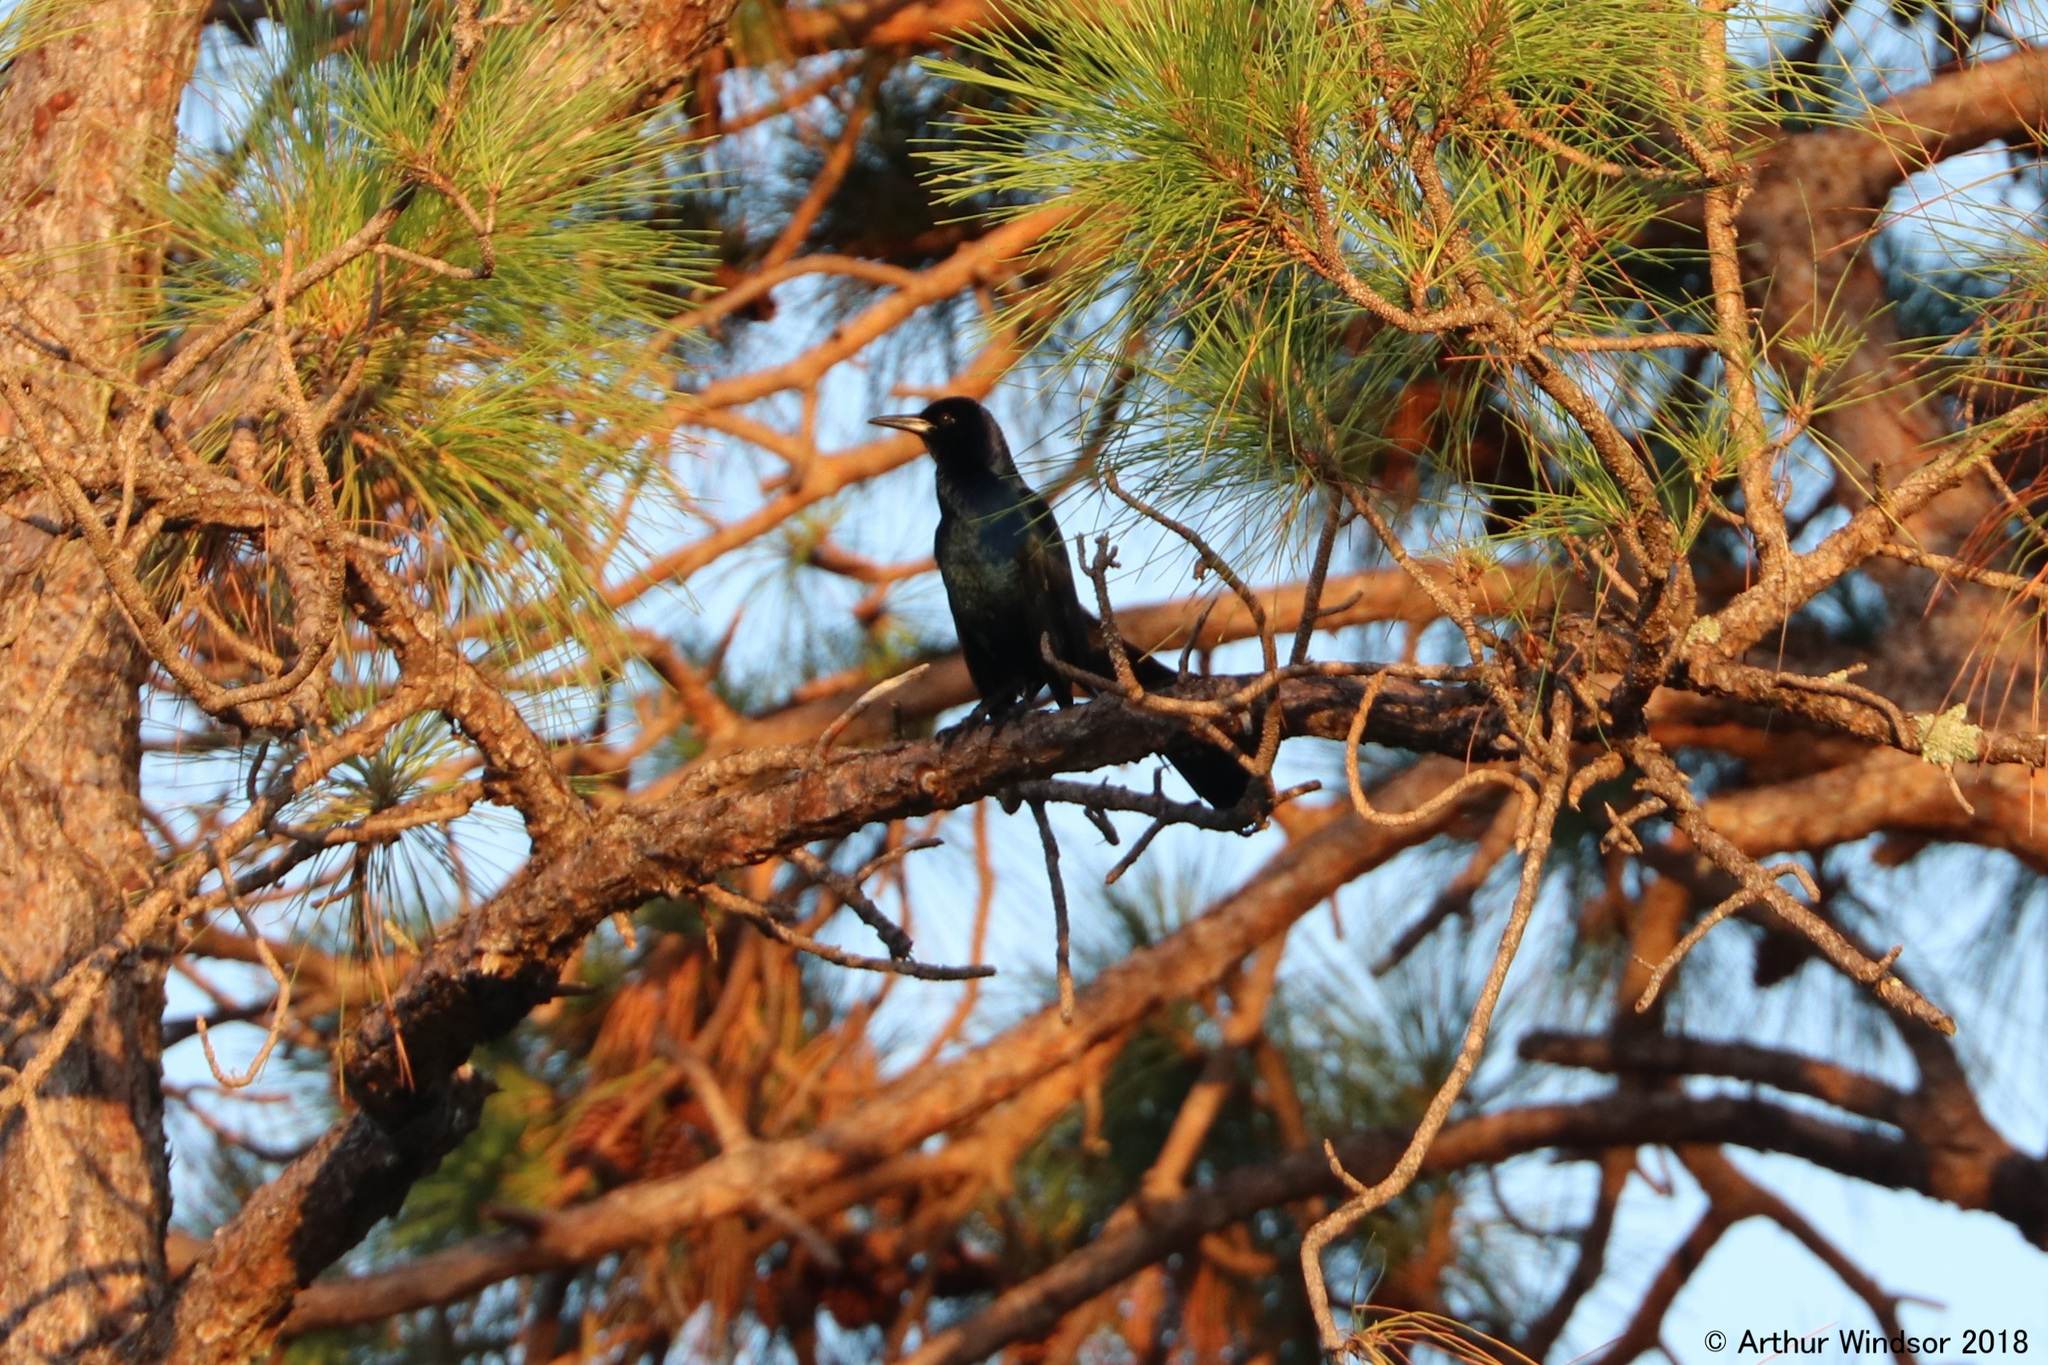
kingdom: Animalia
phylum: Chordata
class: Aves
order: Passeriformes
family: Icteridae
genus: Quiscalus
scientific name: Quiscalus major
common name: Boat-tailed grackle
